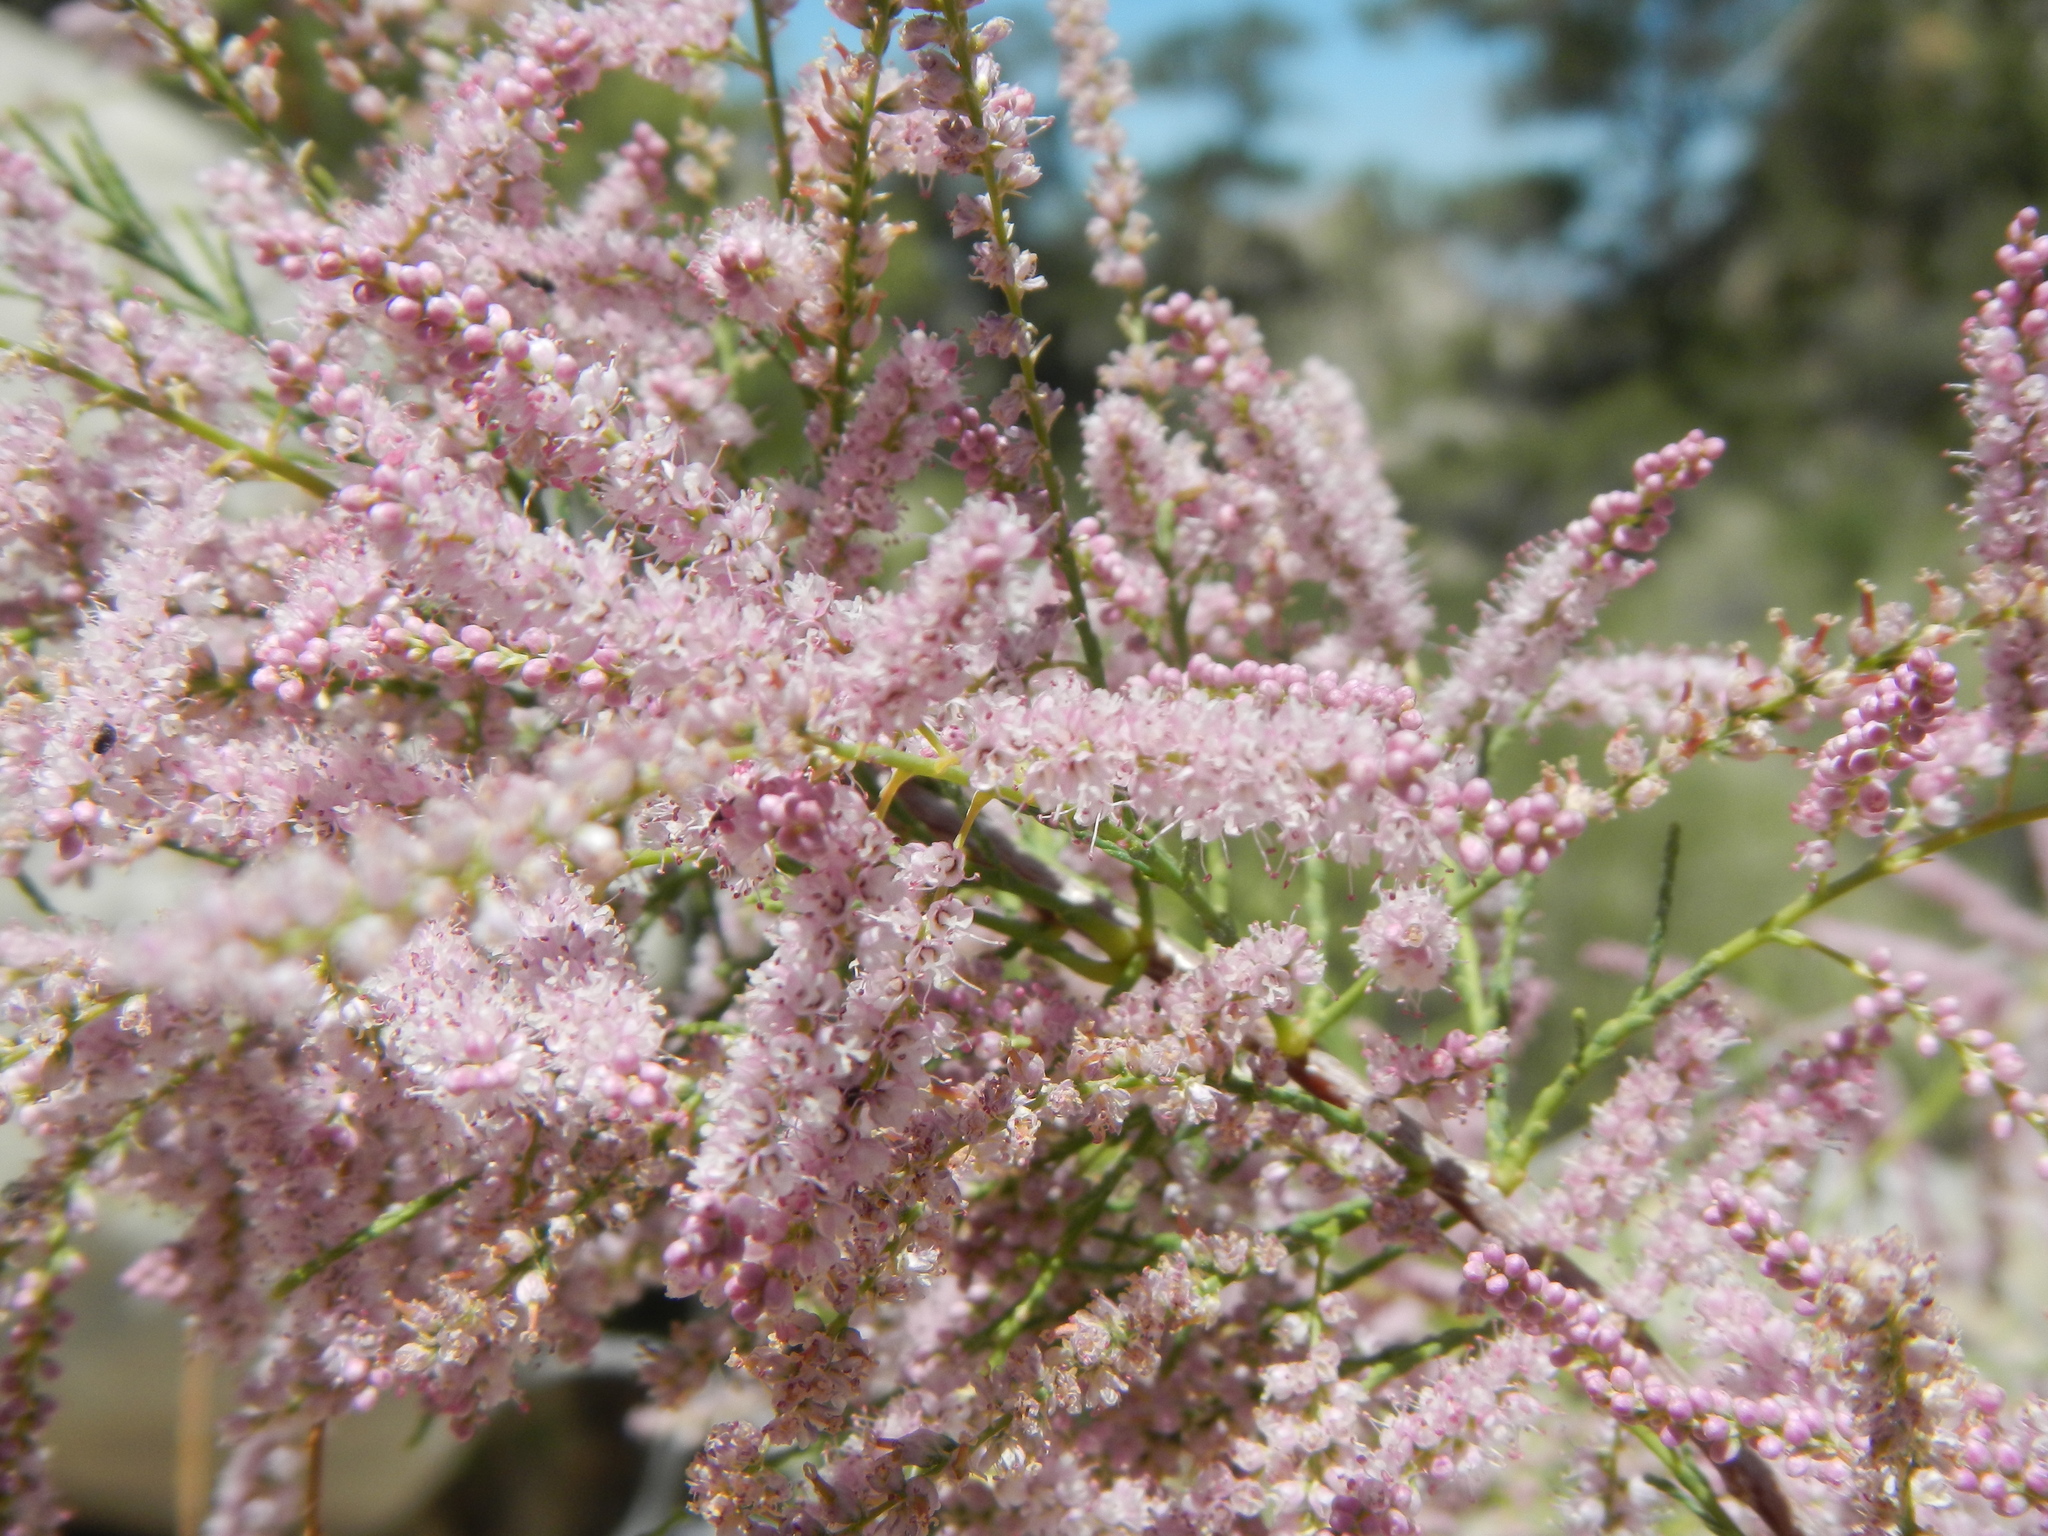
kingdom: Plantae
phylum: Tracheophyta
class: Magnoliopsida
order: Caryophyllales
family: Tamaricaceae
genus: Tamarix
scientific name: Tamarix
